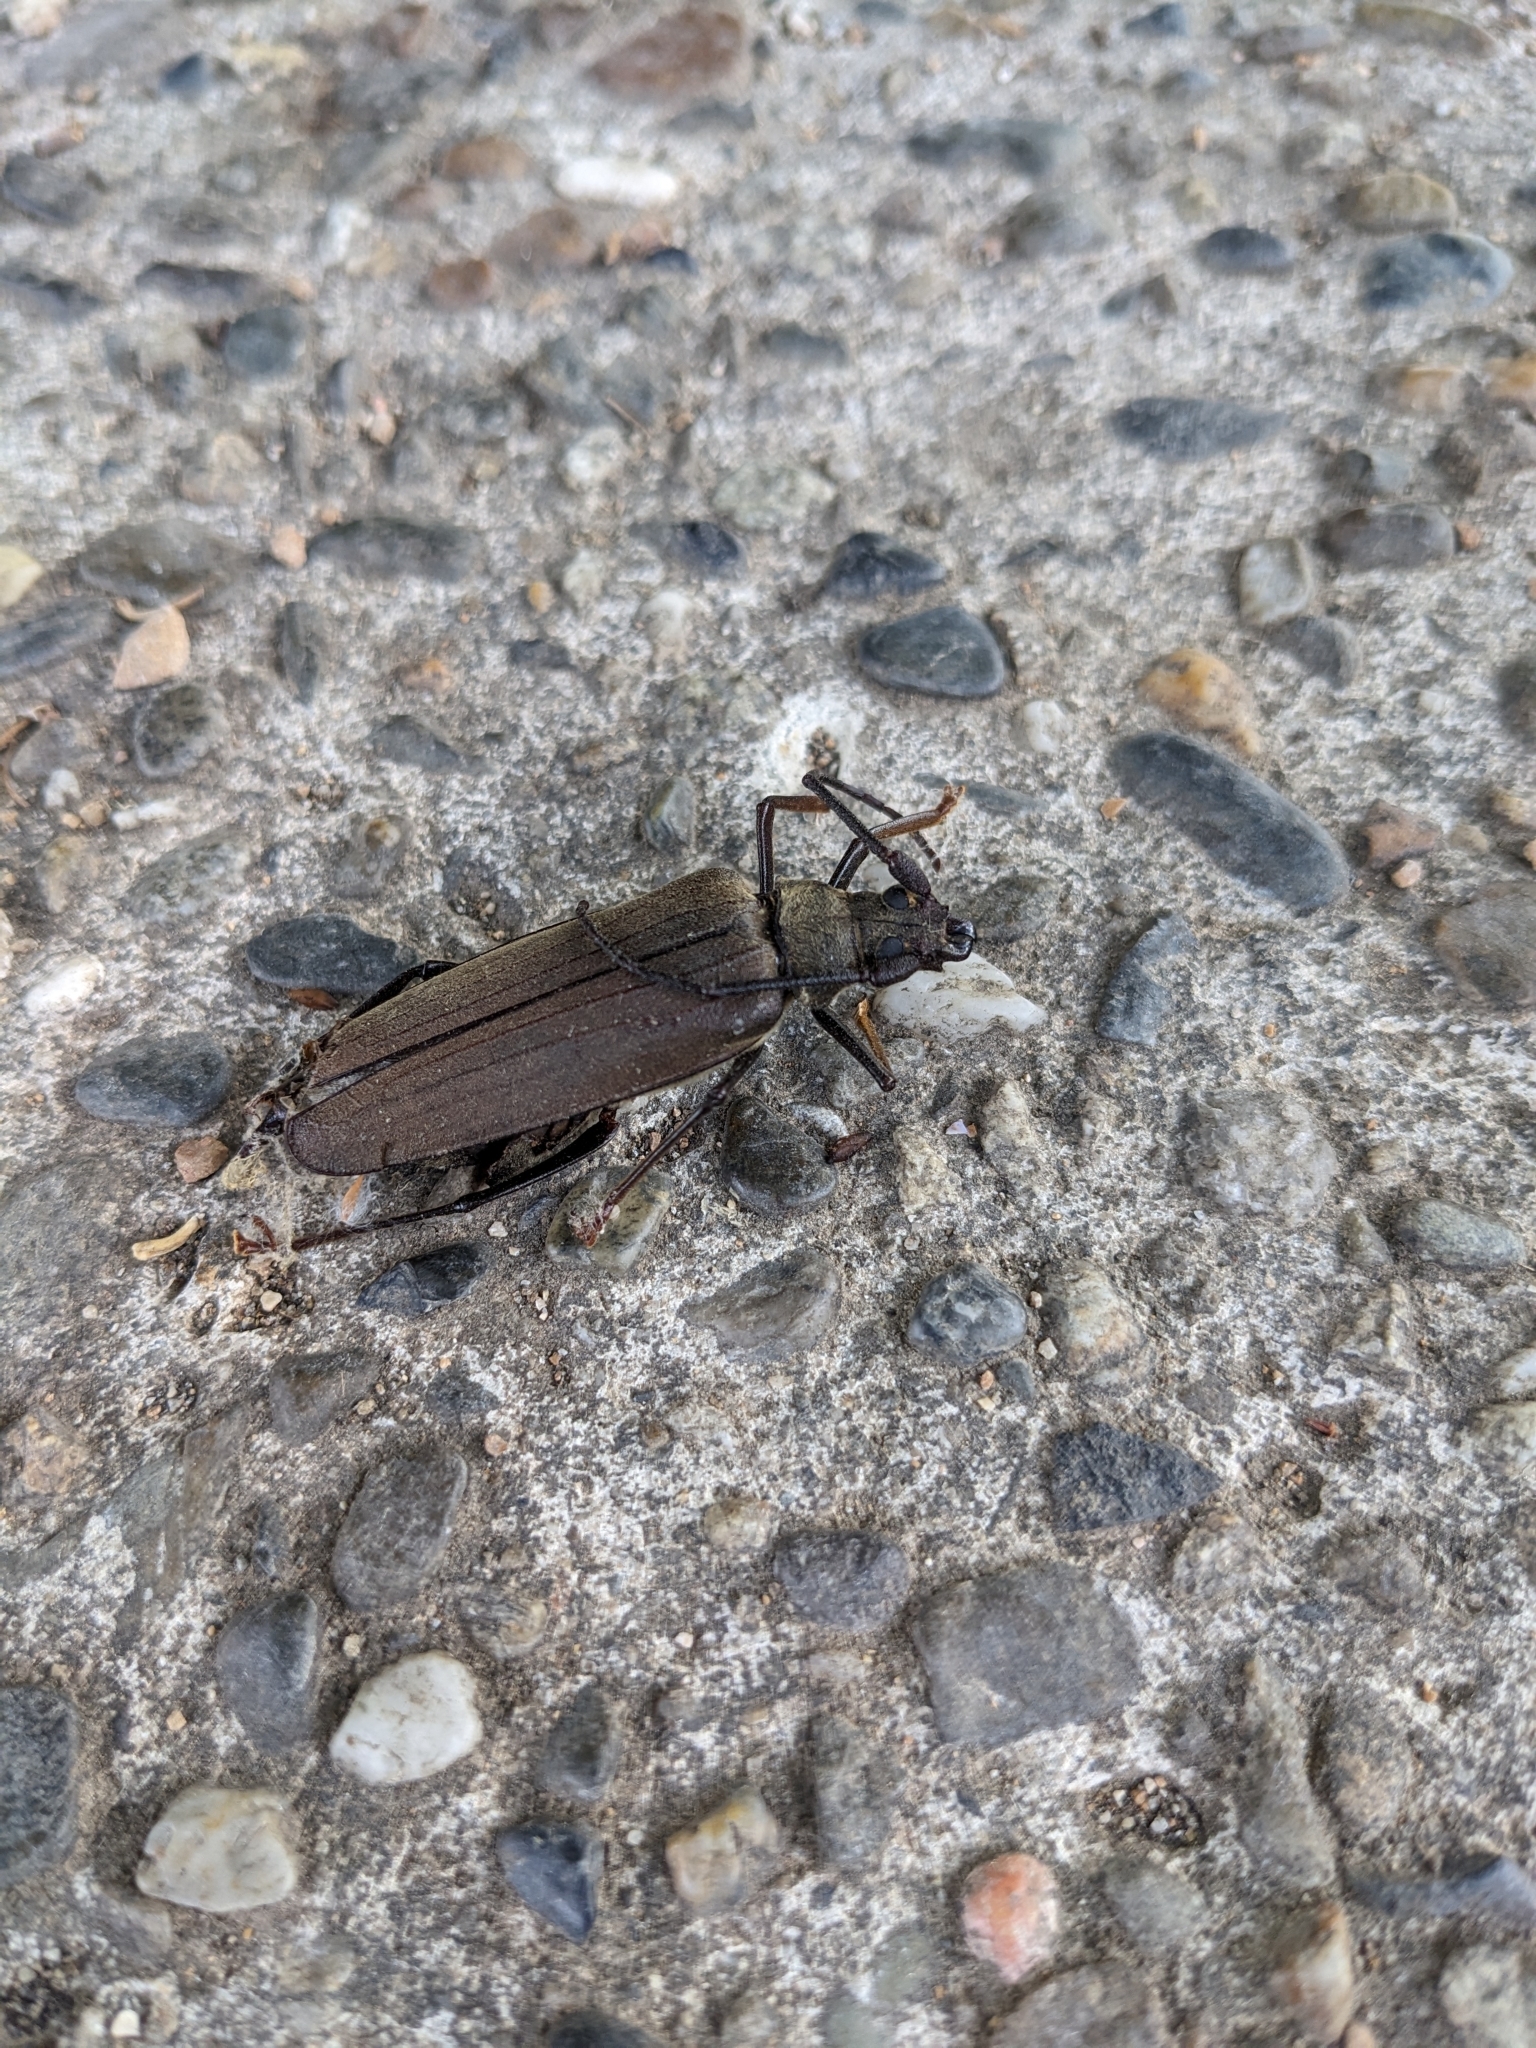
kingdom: Animalia
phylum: Arthropoda
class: Insecta
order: Coleoptera
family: Cerambycidae
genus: Aegosoma
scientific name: Aegosoma scabricorne
